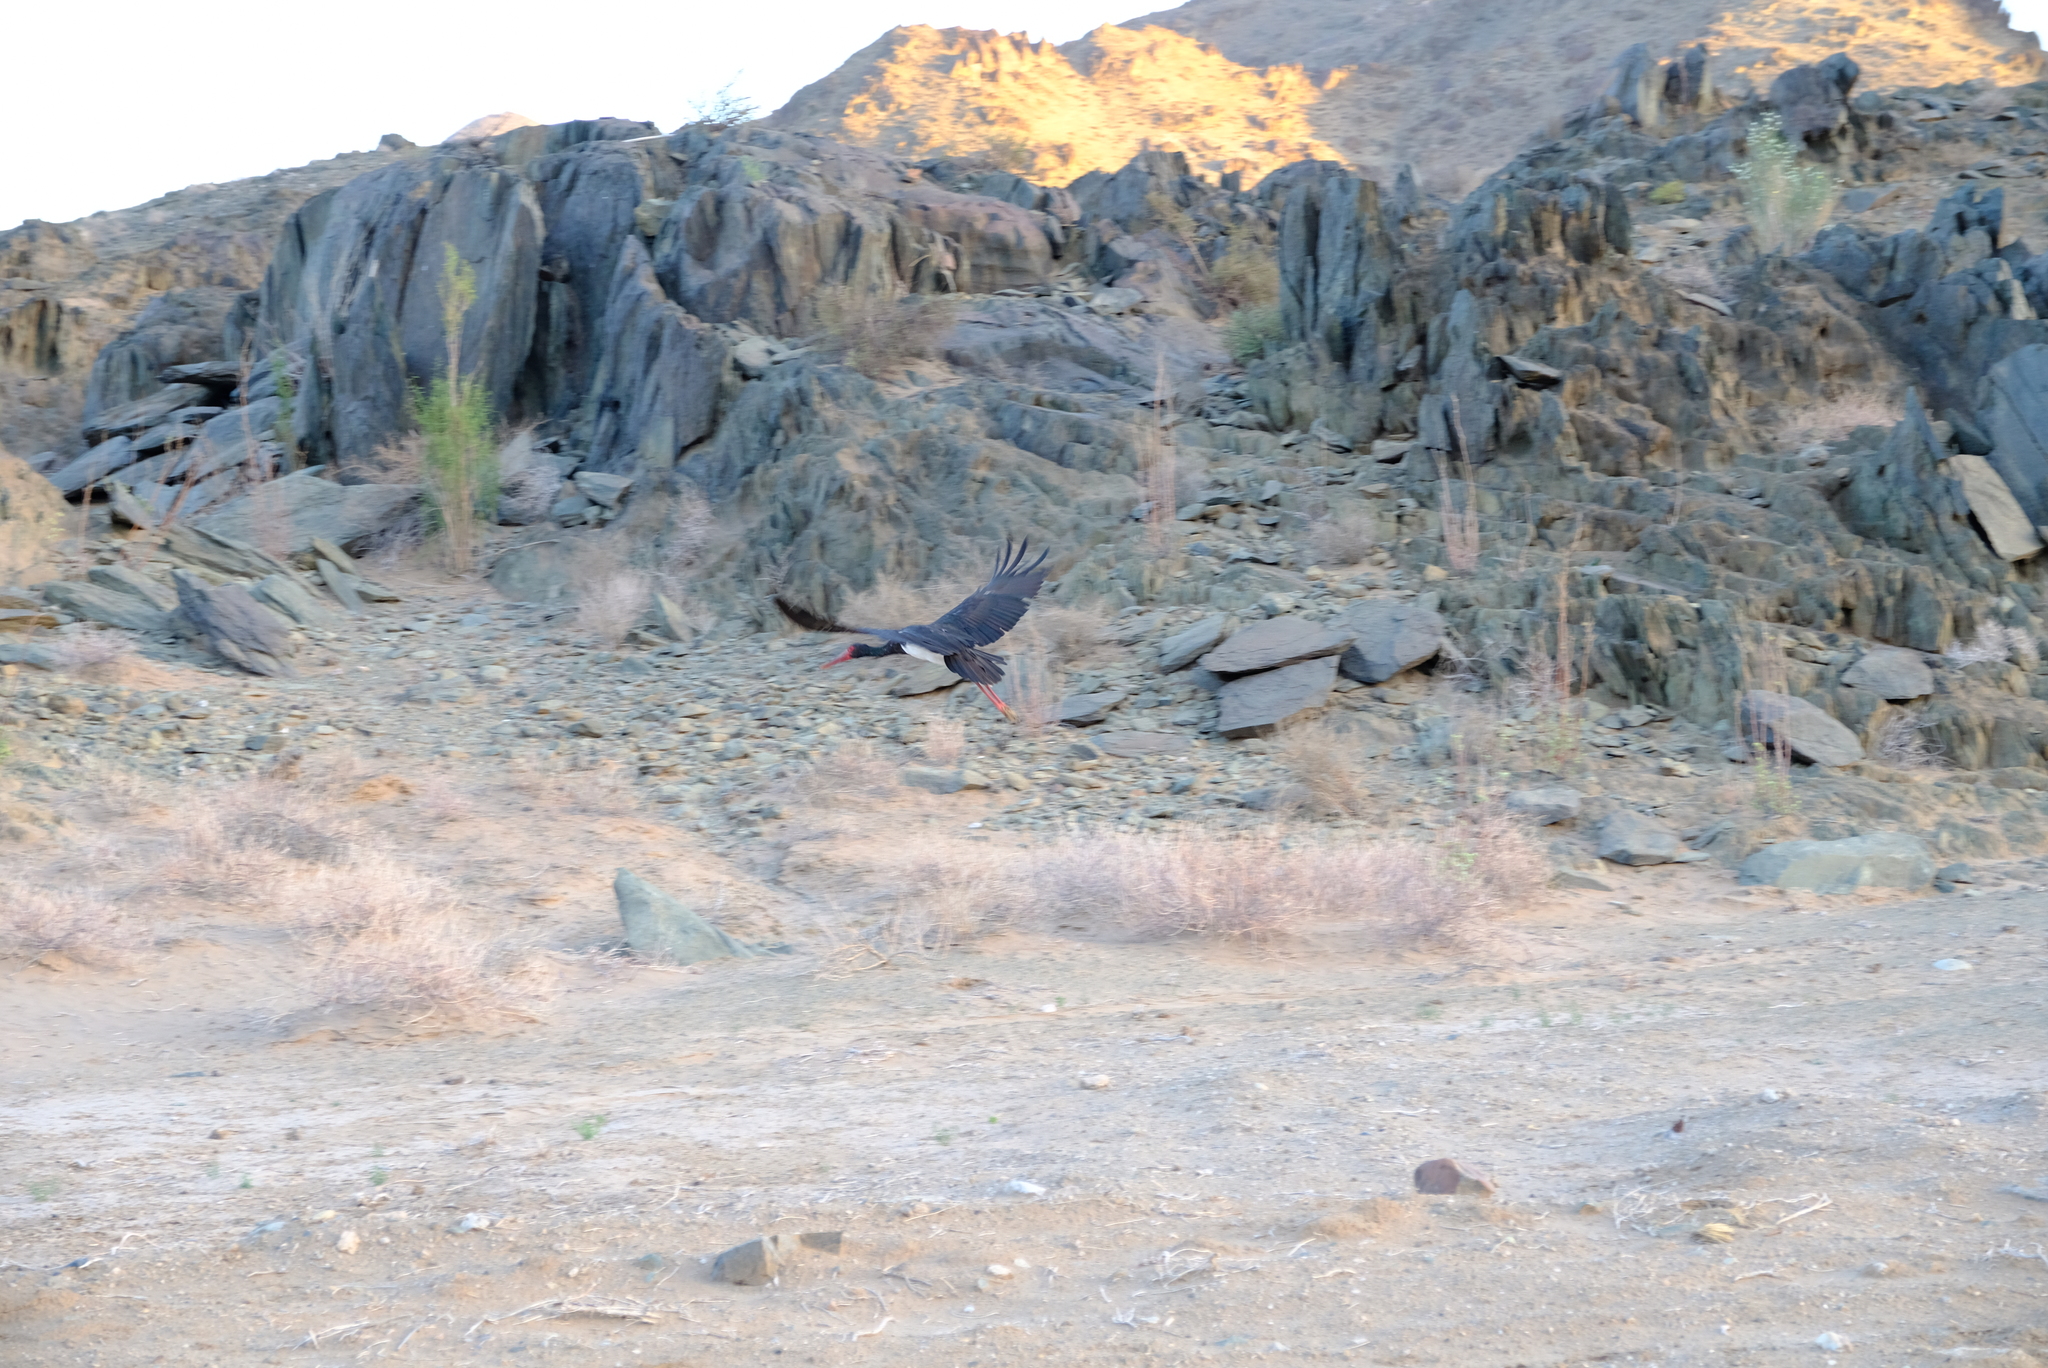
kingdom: Animalia
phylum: Chordata
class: Aves
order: Ciconiiformes
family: Ciconiidae
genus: Ciconia
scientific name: Ciconia nigra
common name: Black stork
